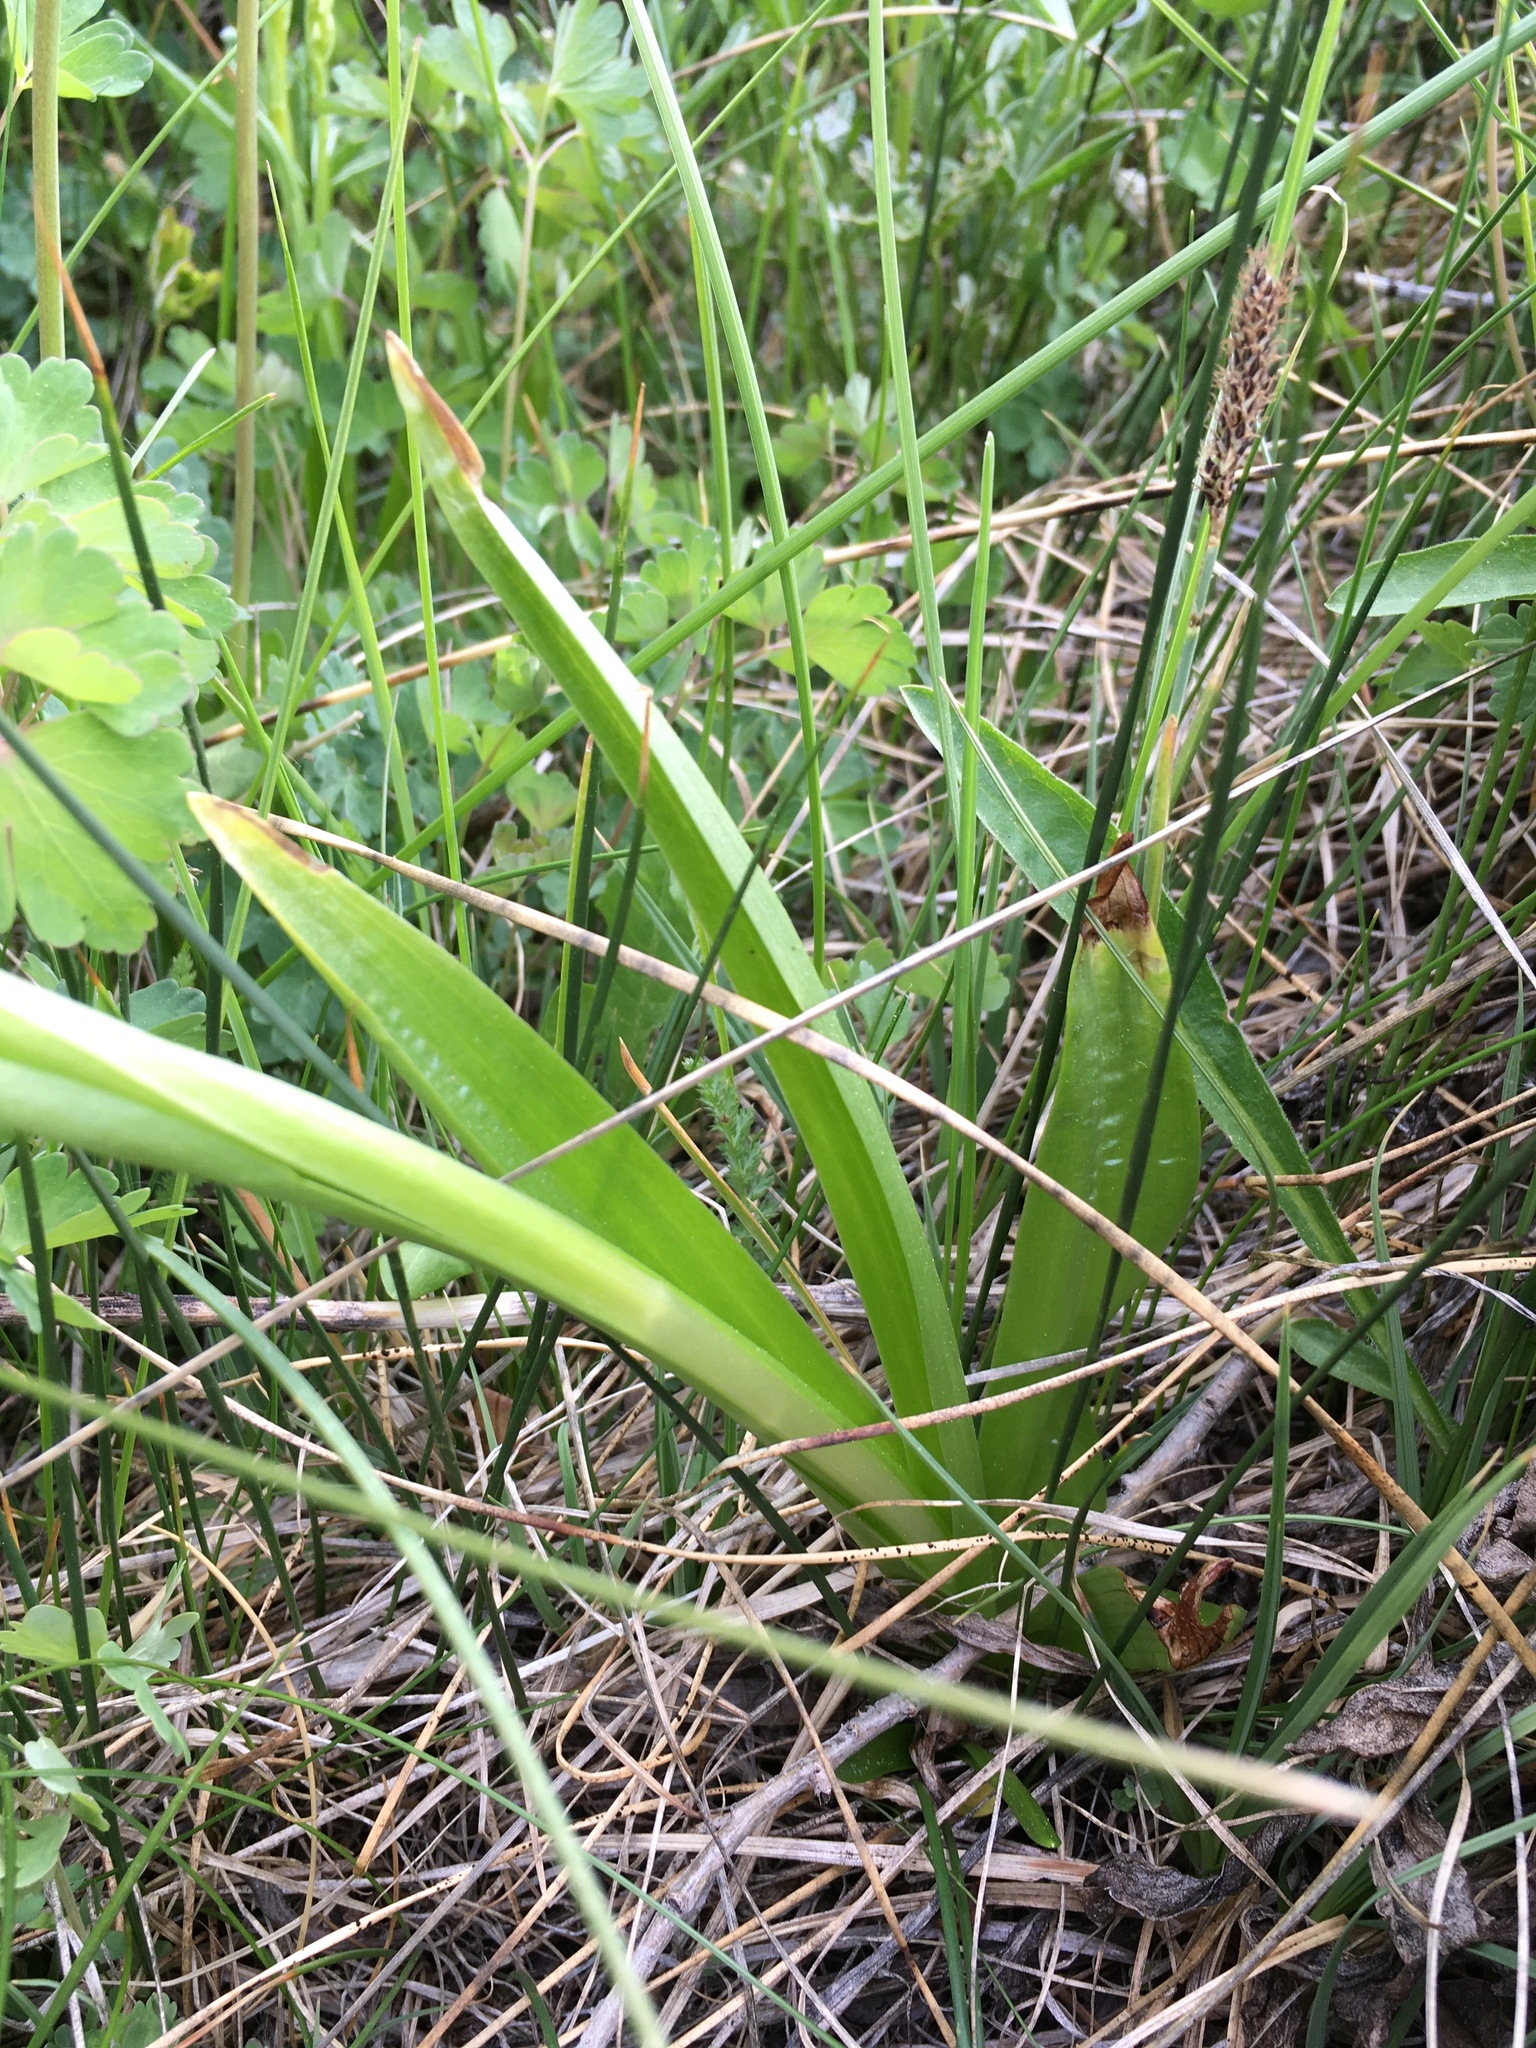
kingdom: Plantae
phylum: Tracheophyta
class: Liliopsida
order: Asparagales
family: Orchidaceae
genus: Platanthera
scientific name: Platanthera tescamnis
